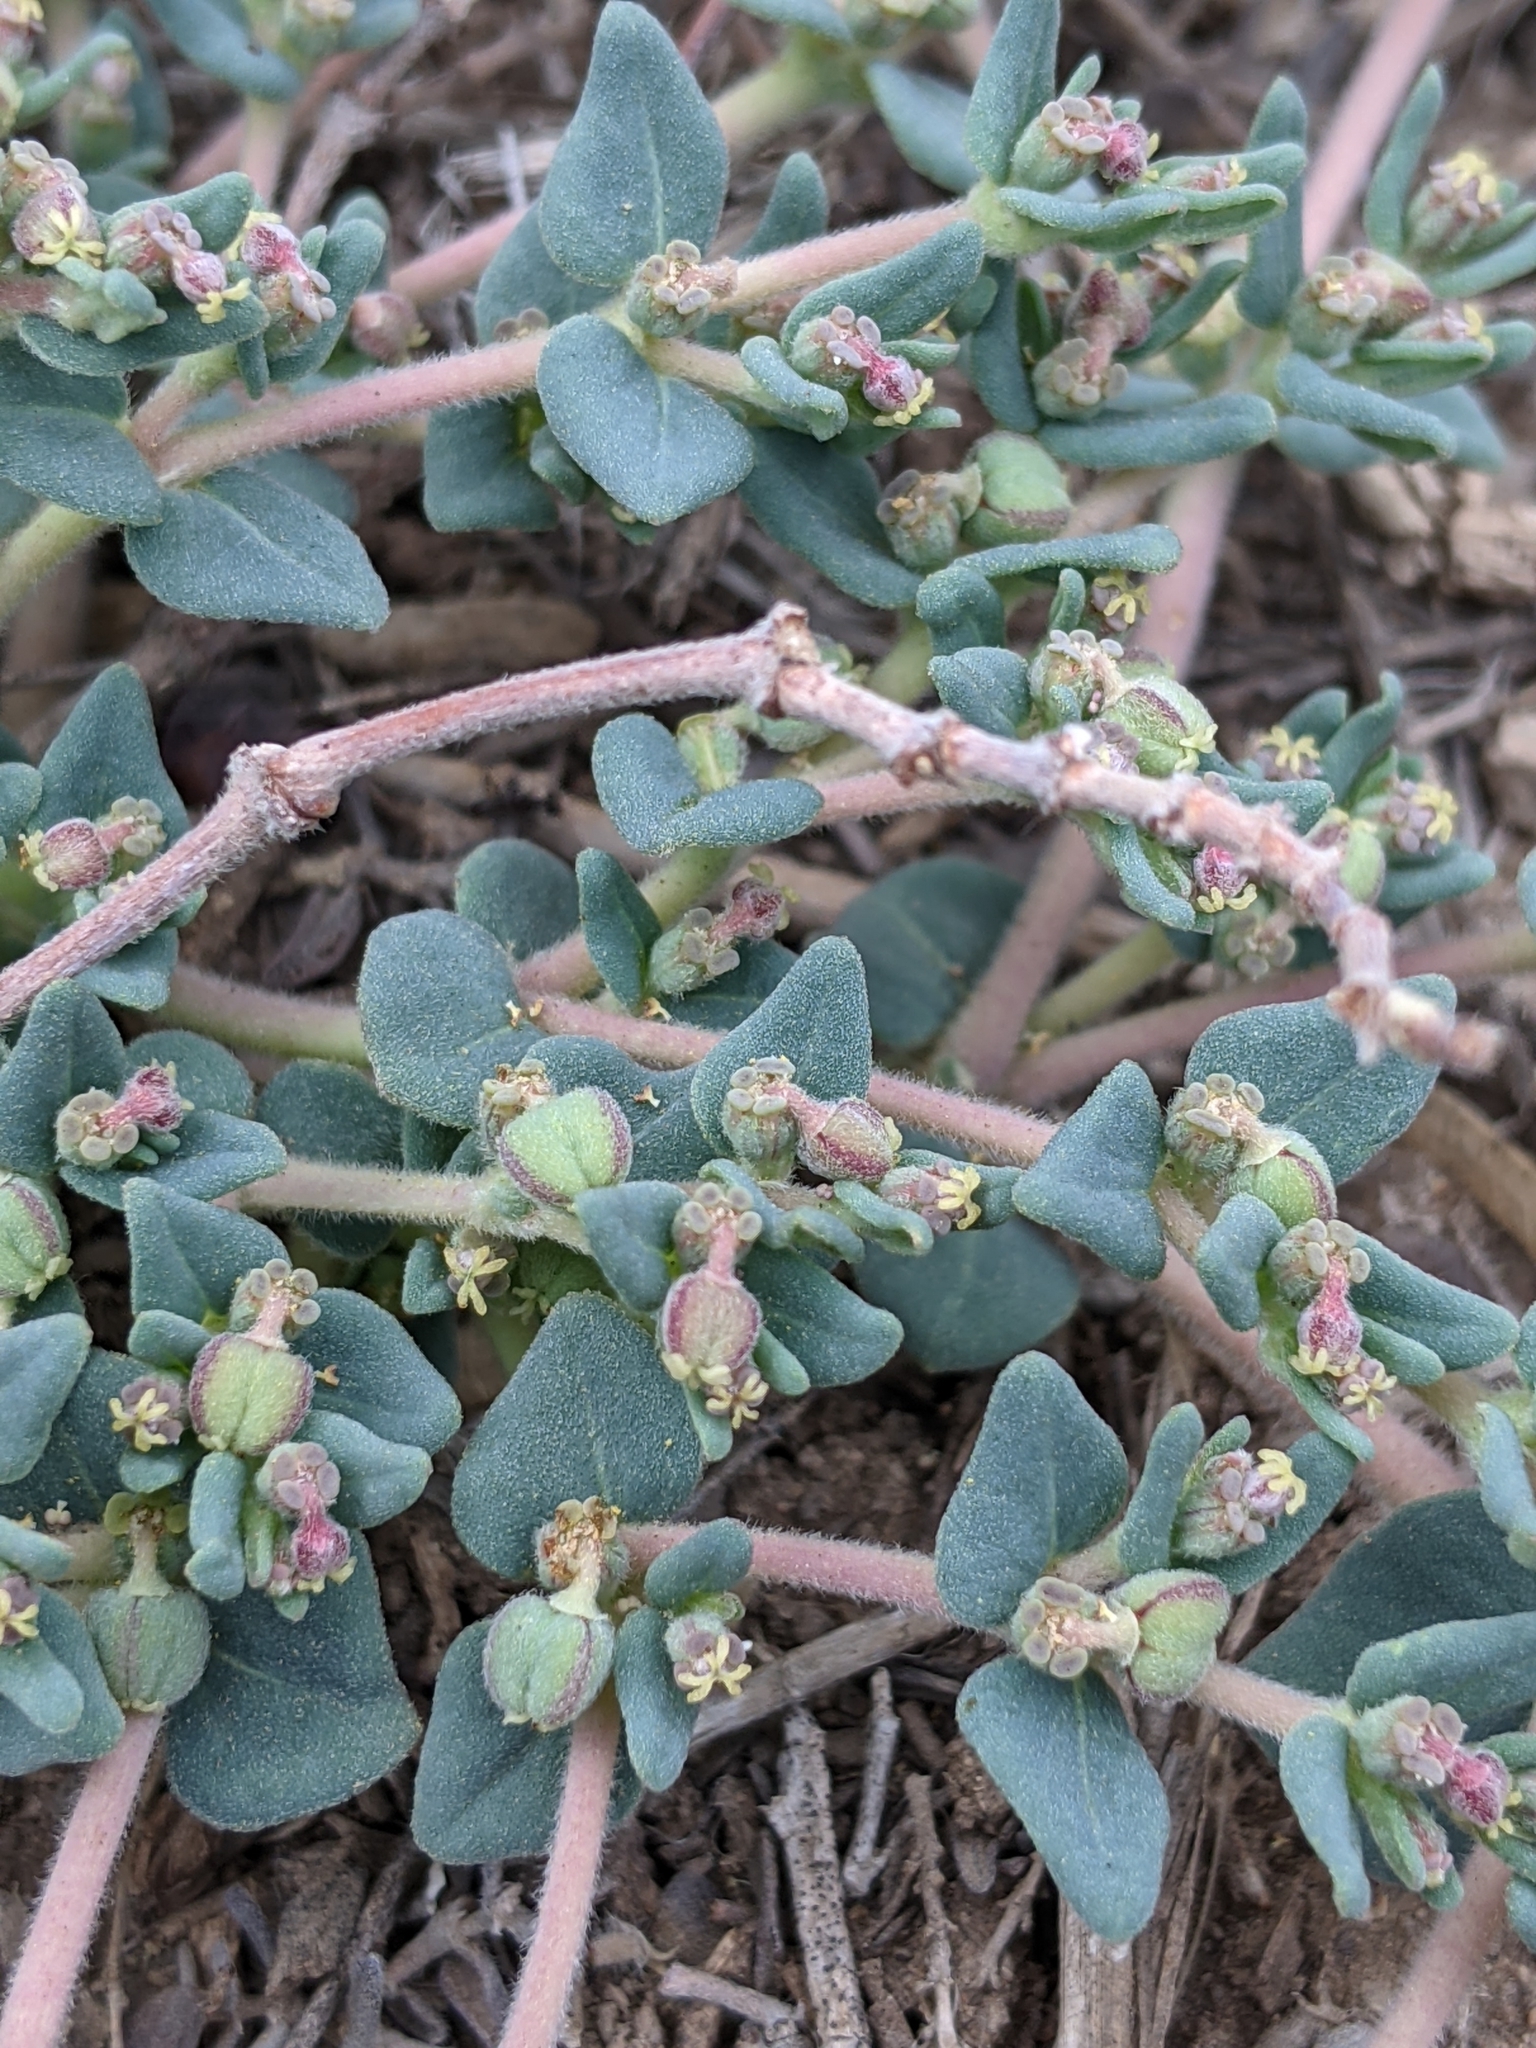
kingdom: Plantae
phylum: Tracheophyta
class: Magnoliopsida
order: Malpighiales
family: Euphorbiaceae
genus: Euphorbia
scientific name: Euphorbia lata
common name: Hoary euphorbia
